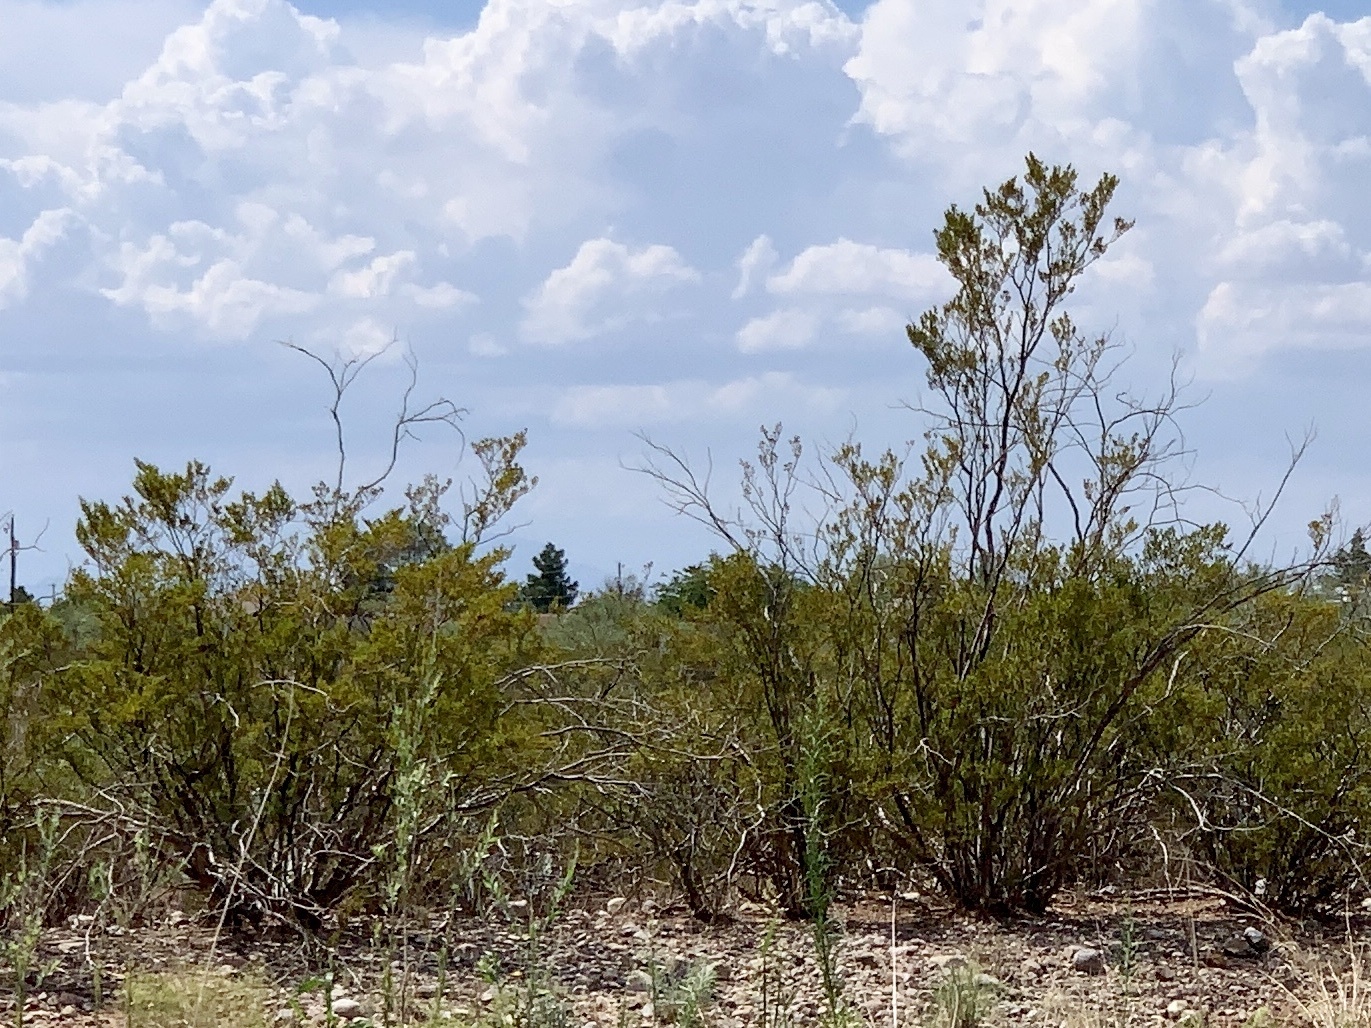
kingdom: Plantae
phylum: Tracheophyta
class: Magnoliopsida
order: Zygophyllales
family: Zygophyllaceae
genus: Larrea
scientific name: Larrea tridentata
